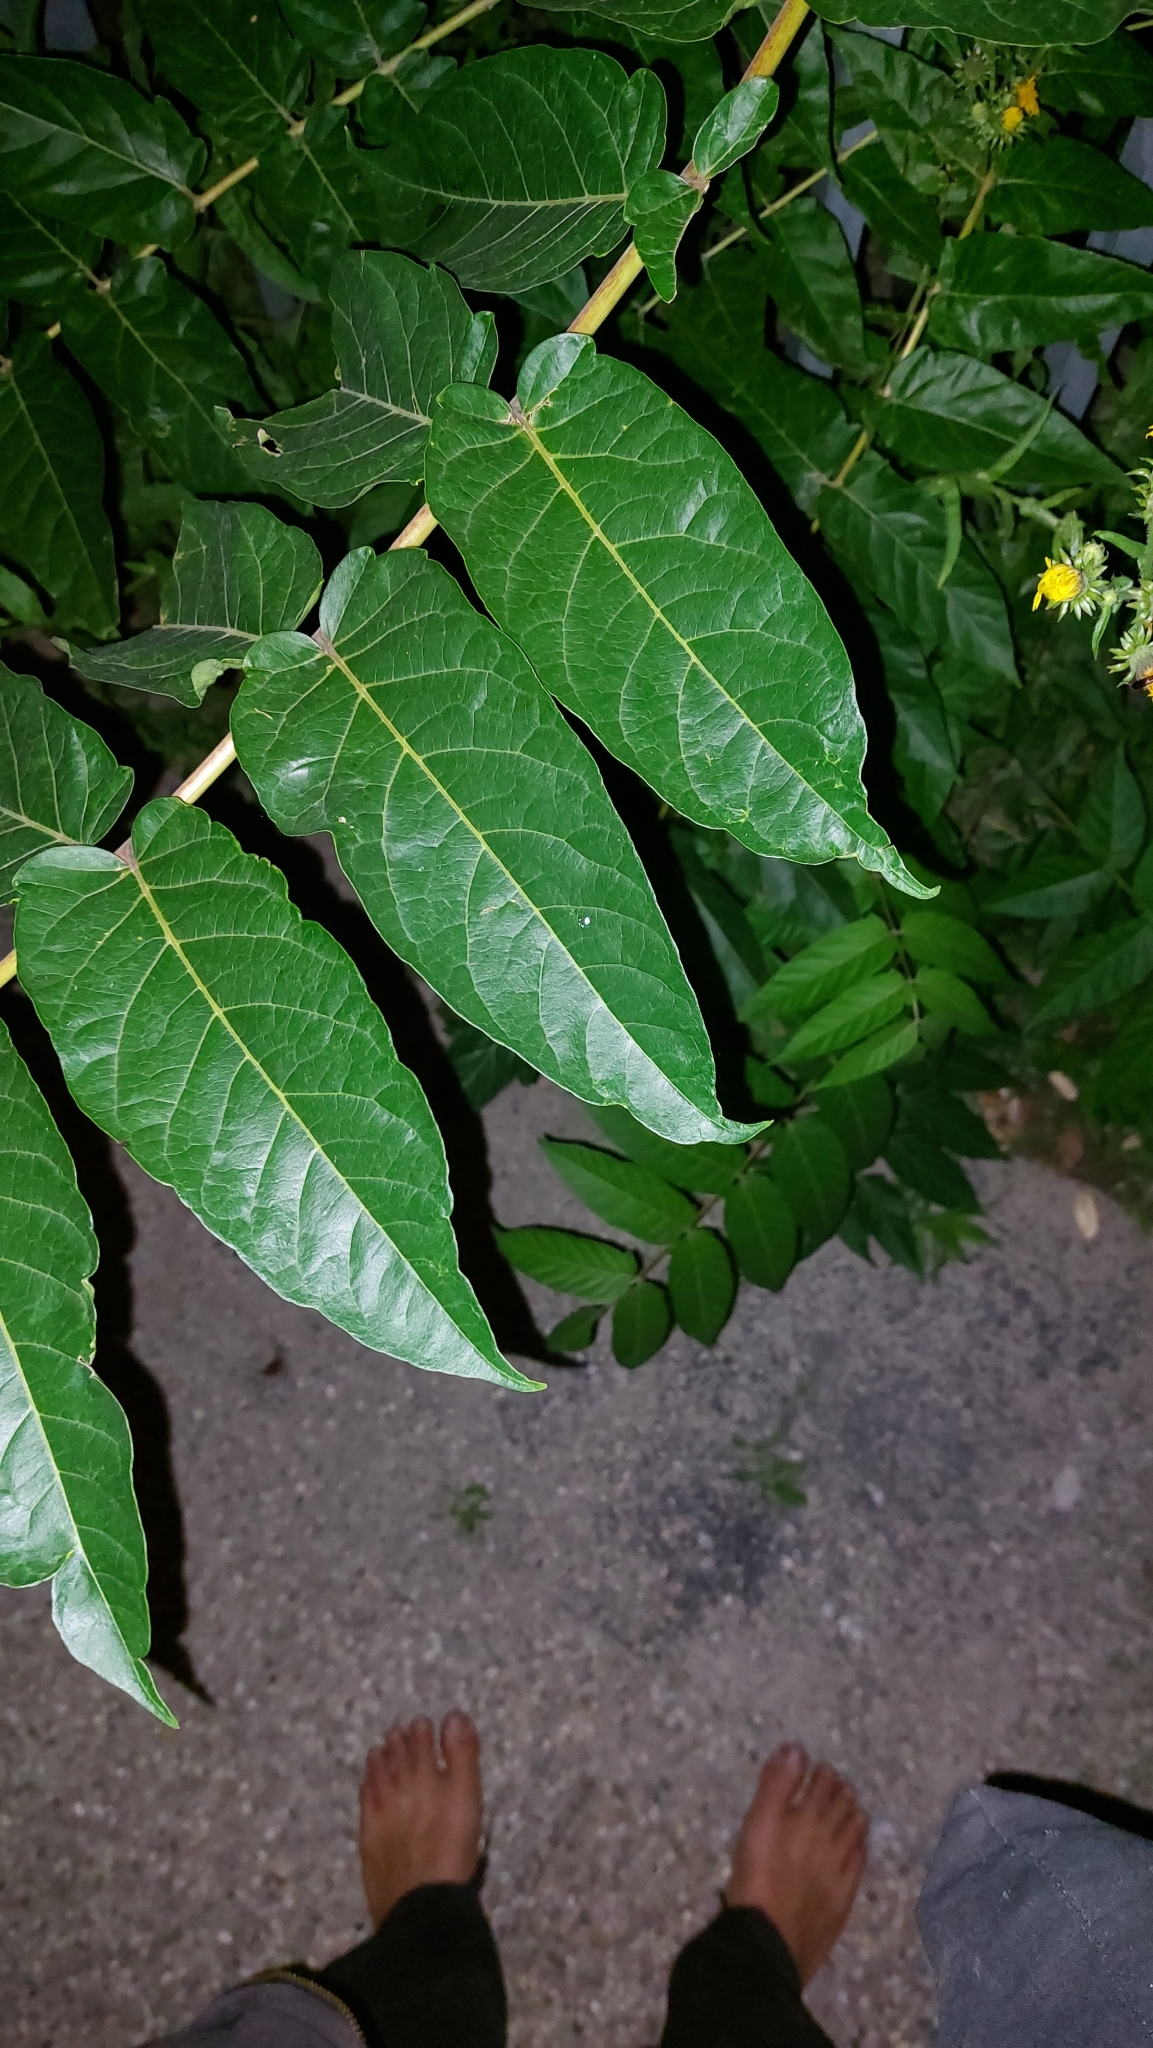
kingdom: Plantae
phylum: Tracheophyta
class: Magnoliopsida
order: Sapindales
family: Simaroubaceae
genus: Ailanthus
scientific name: Ailanthus altissima
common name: Tree-of-heaven
